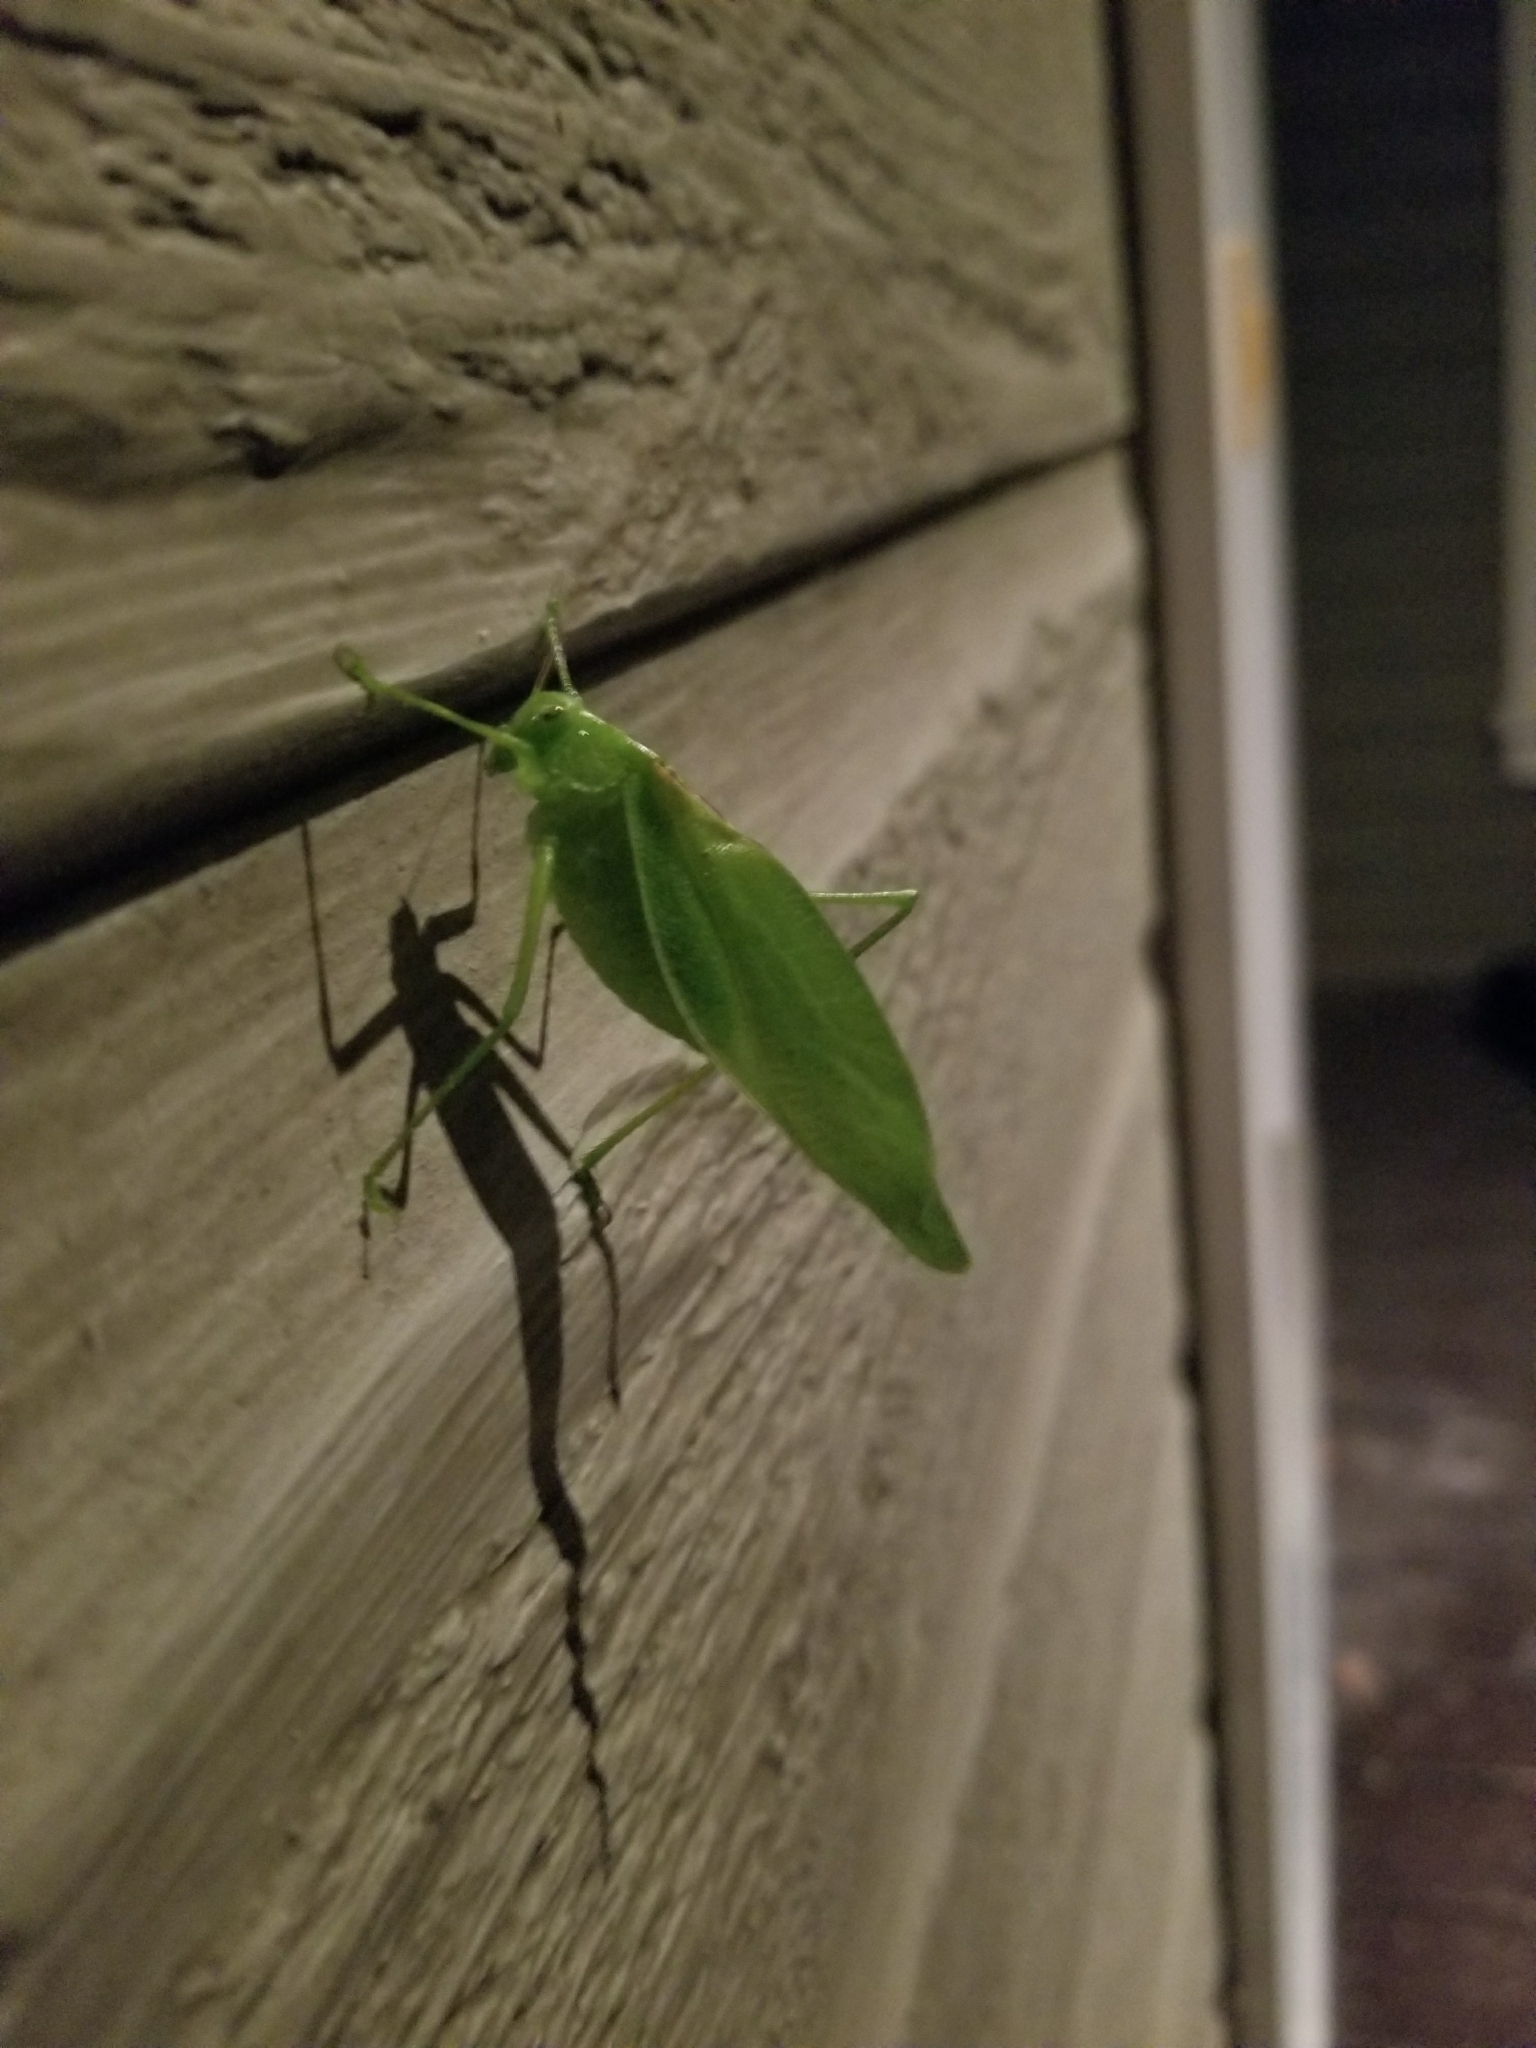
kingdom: Animalia
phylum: Arthropoda
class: Insecta
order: Orthoptera
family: Tettigoniidae
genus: Amblycorypha
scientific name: Amblycorypha oblongifolia
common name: Oblong-winged katydid
